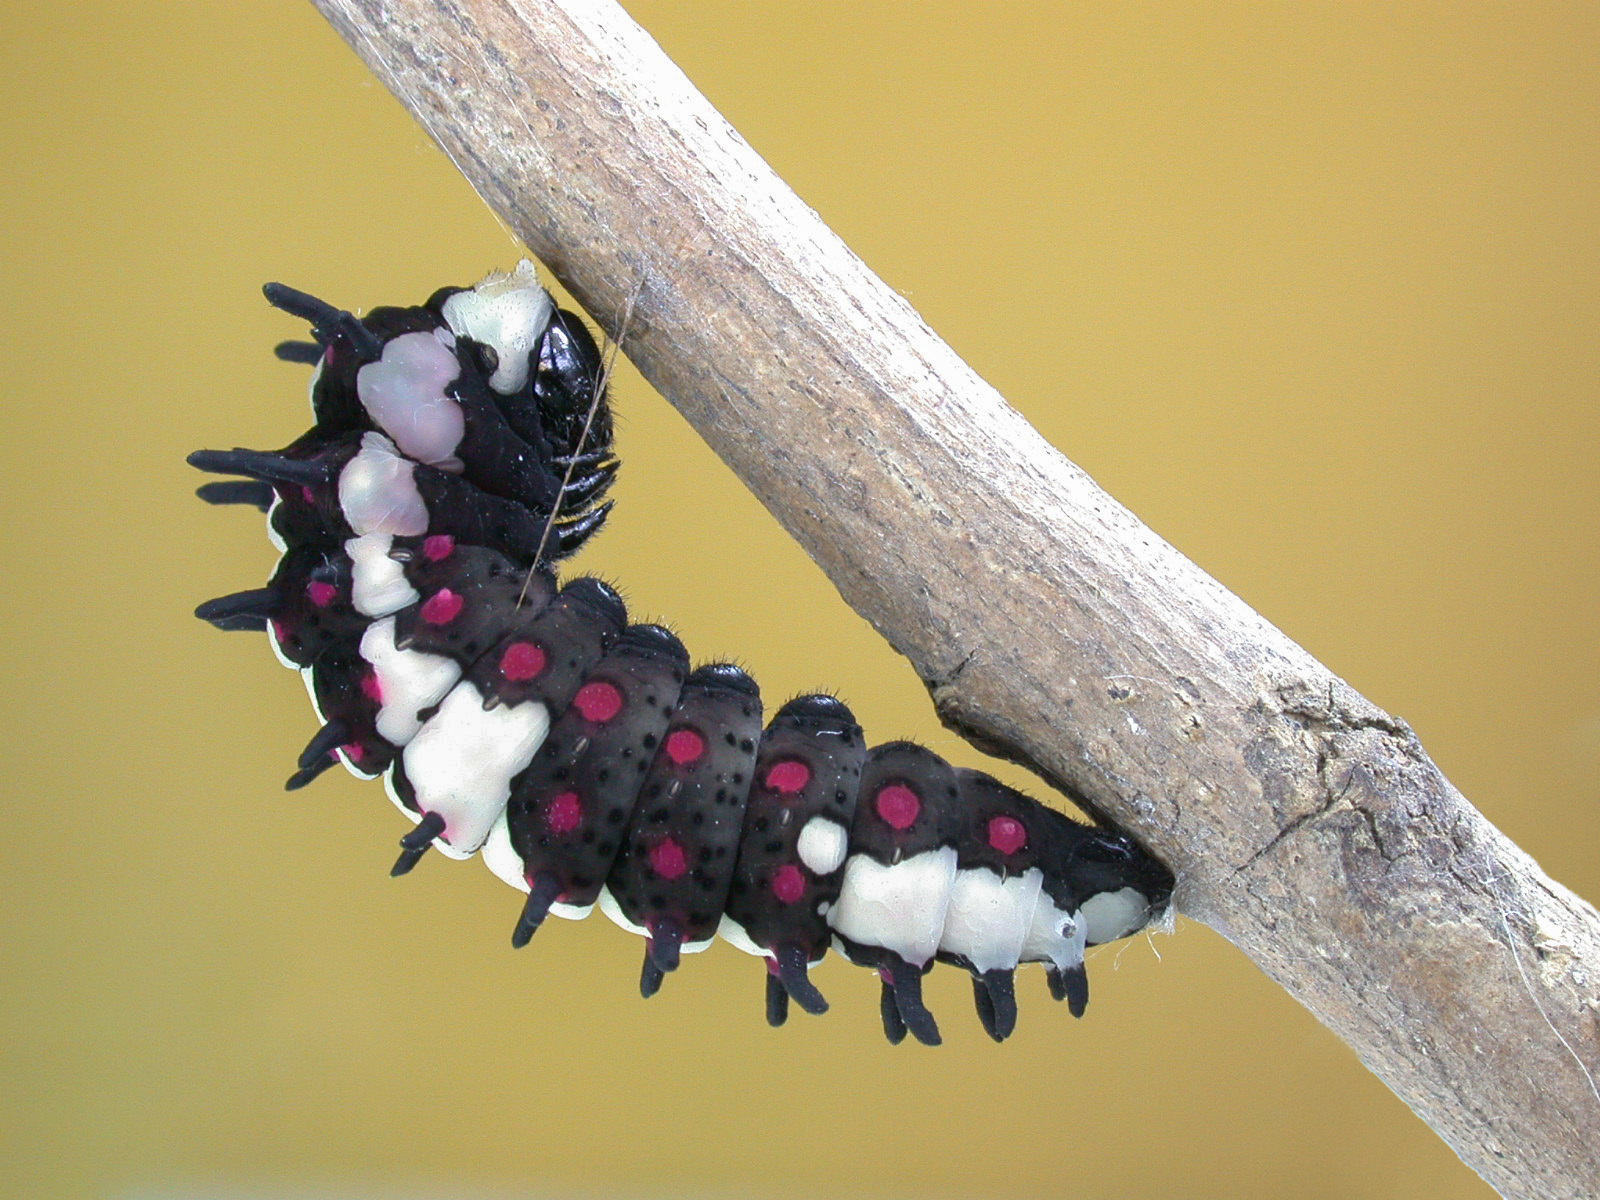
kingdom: Animalia
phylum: Arthropoda
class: Insecta
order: Lepidoptera
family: Papilionidae
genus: Chilasa
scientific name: Chilasa clytia
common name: Common mime
